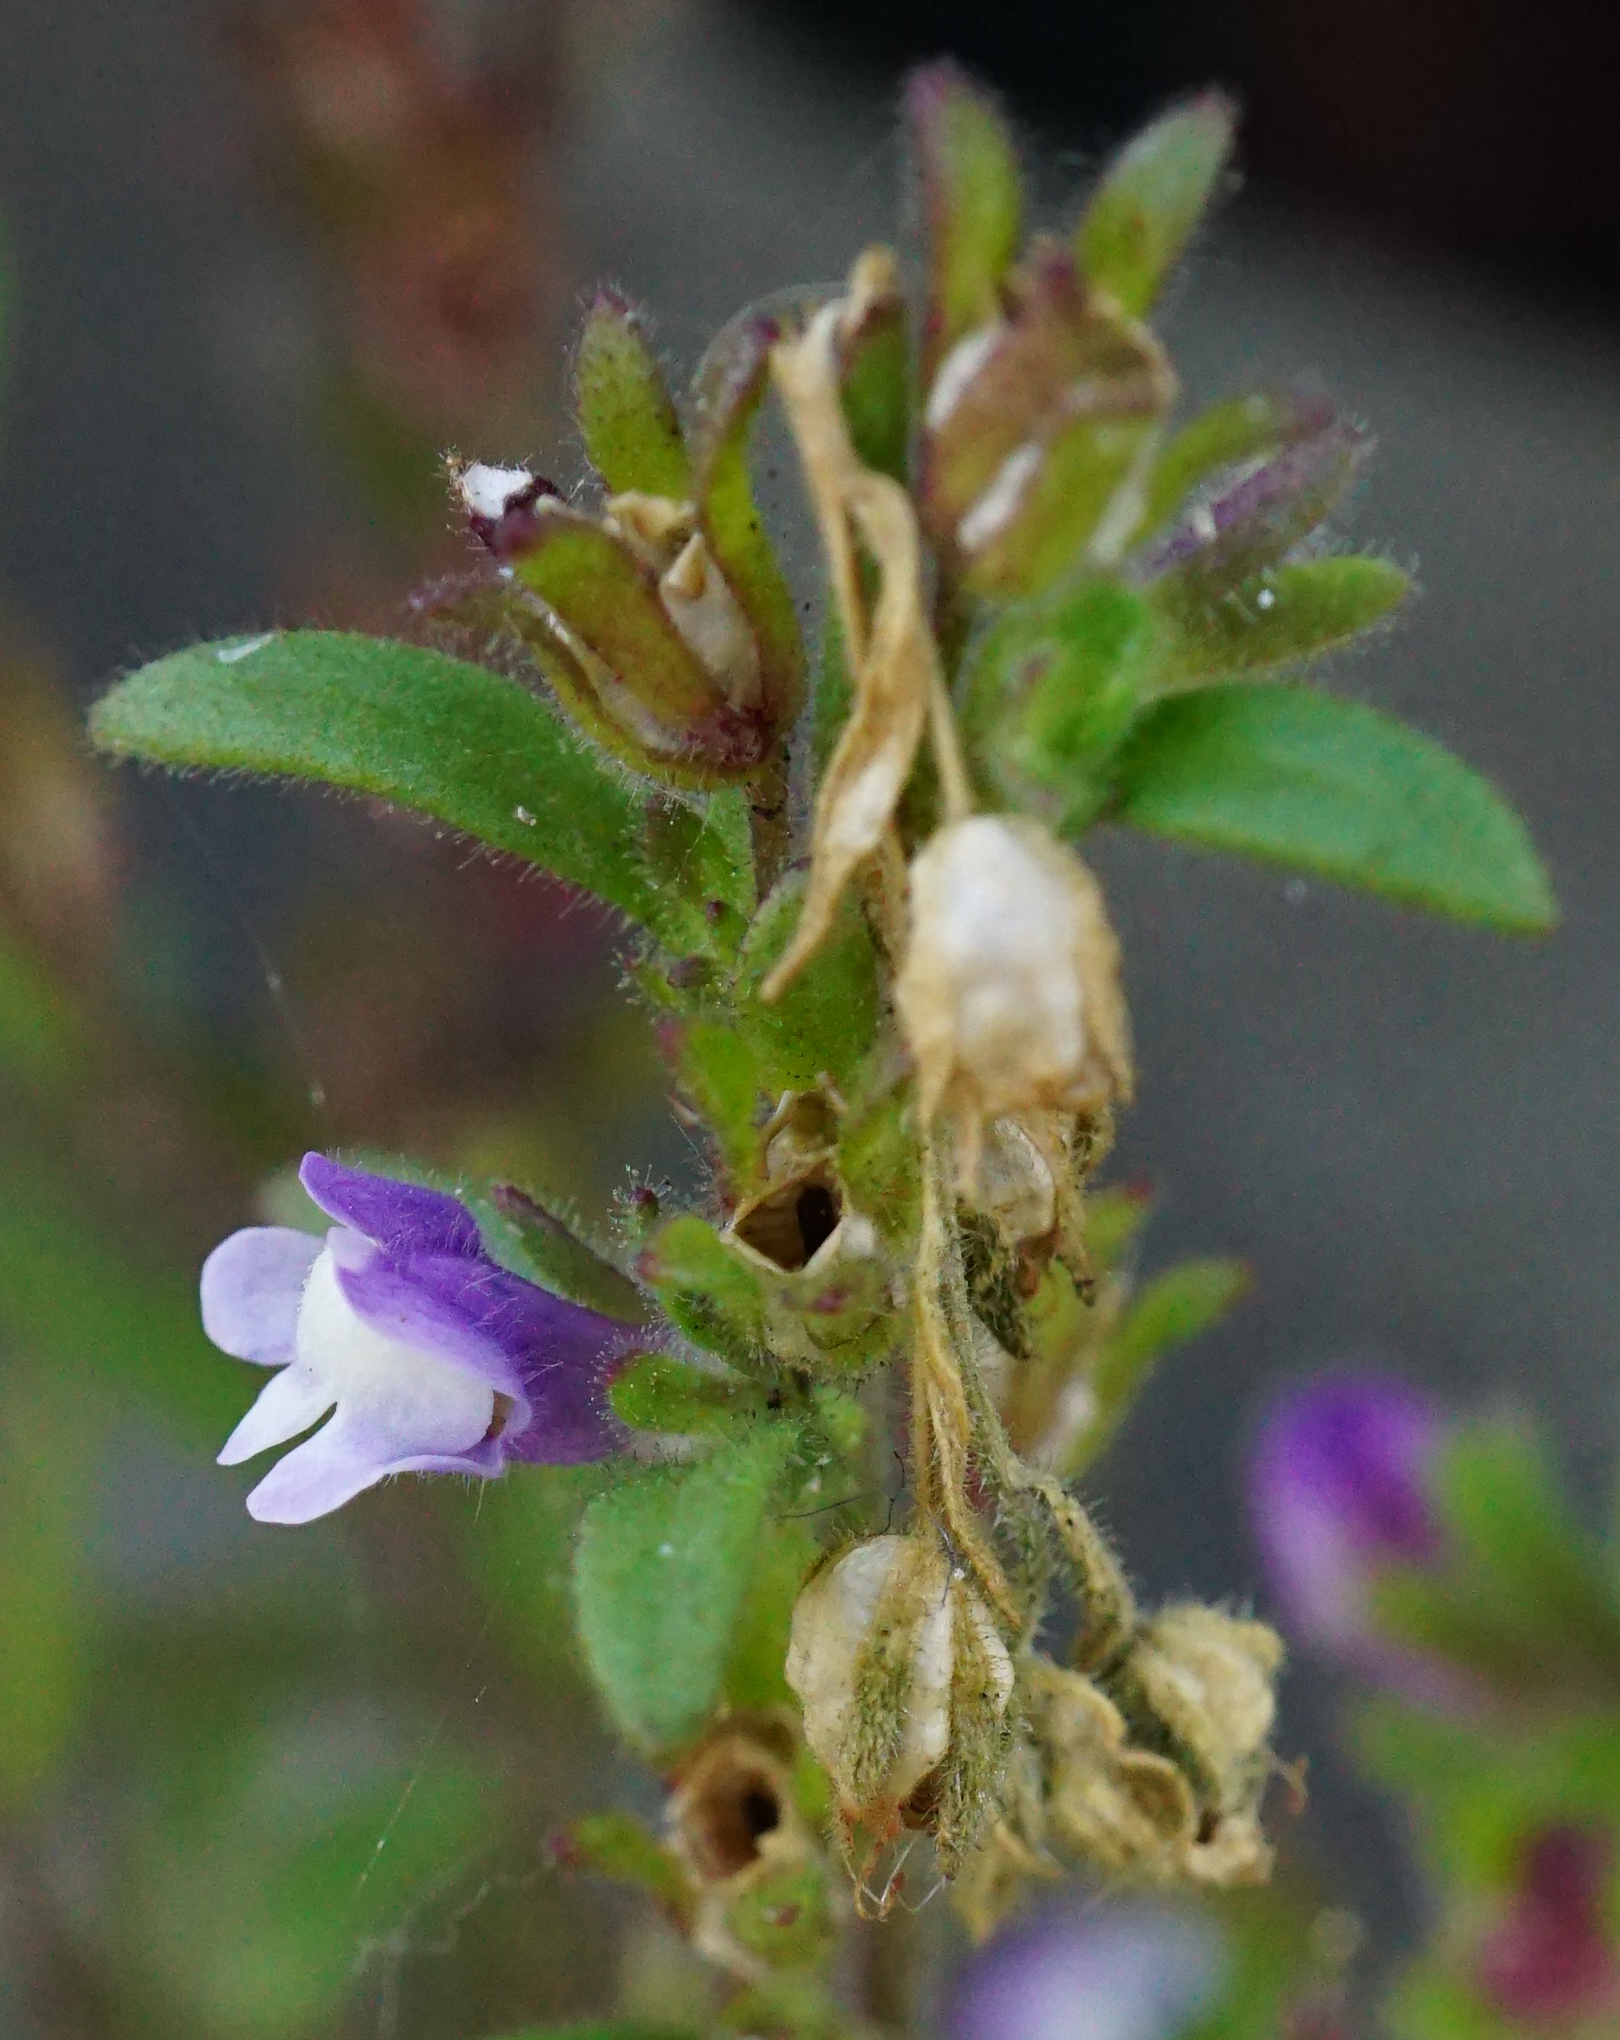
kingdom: Plantae
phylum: Tracheophyta
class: Magnoliopsida
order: Lamiales
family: Plantaginaceae
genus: Chaenorhinum
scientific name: Chaenorhinum litorale
